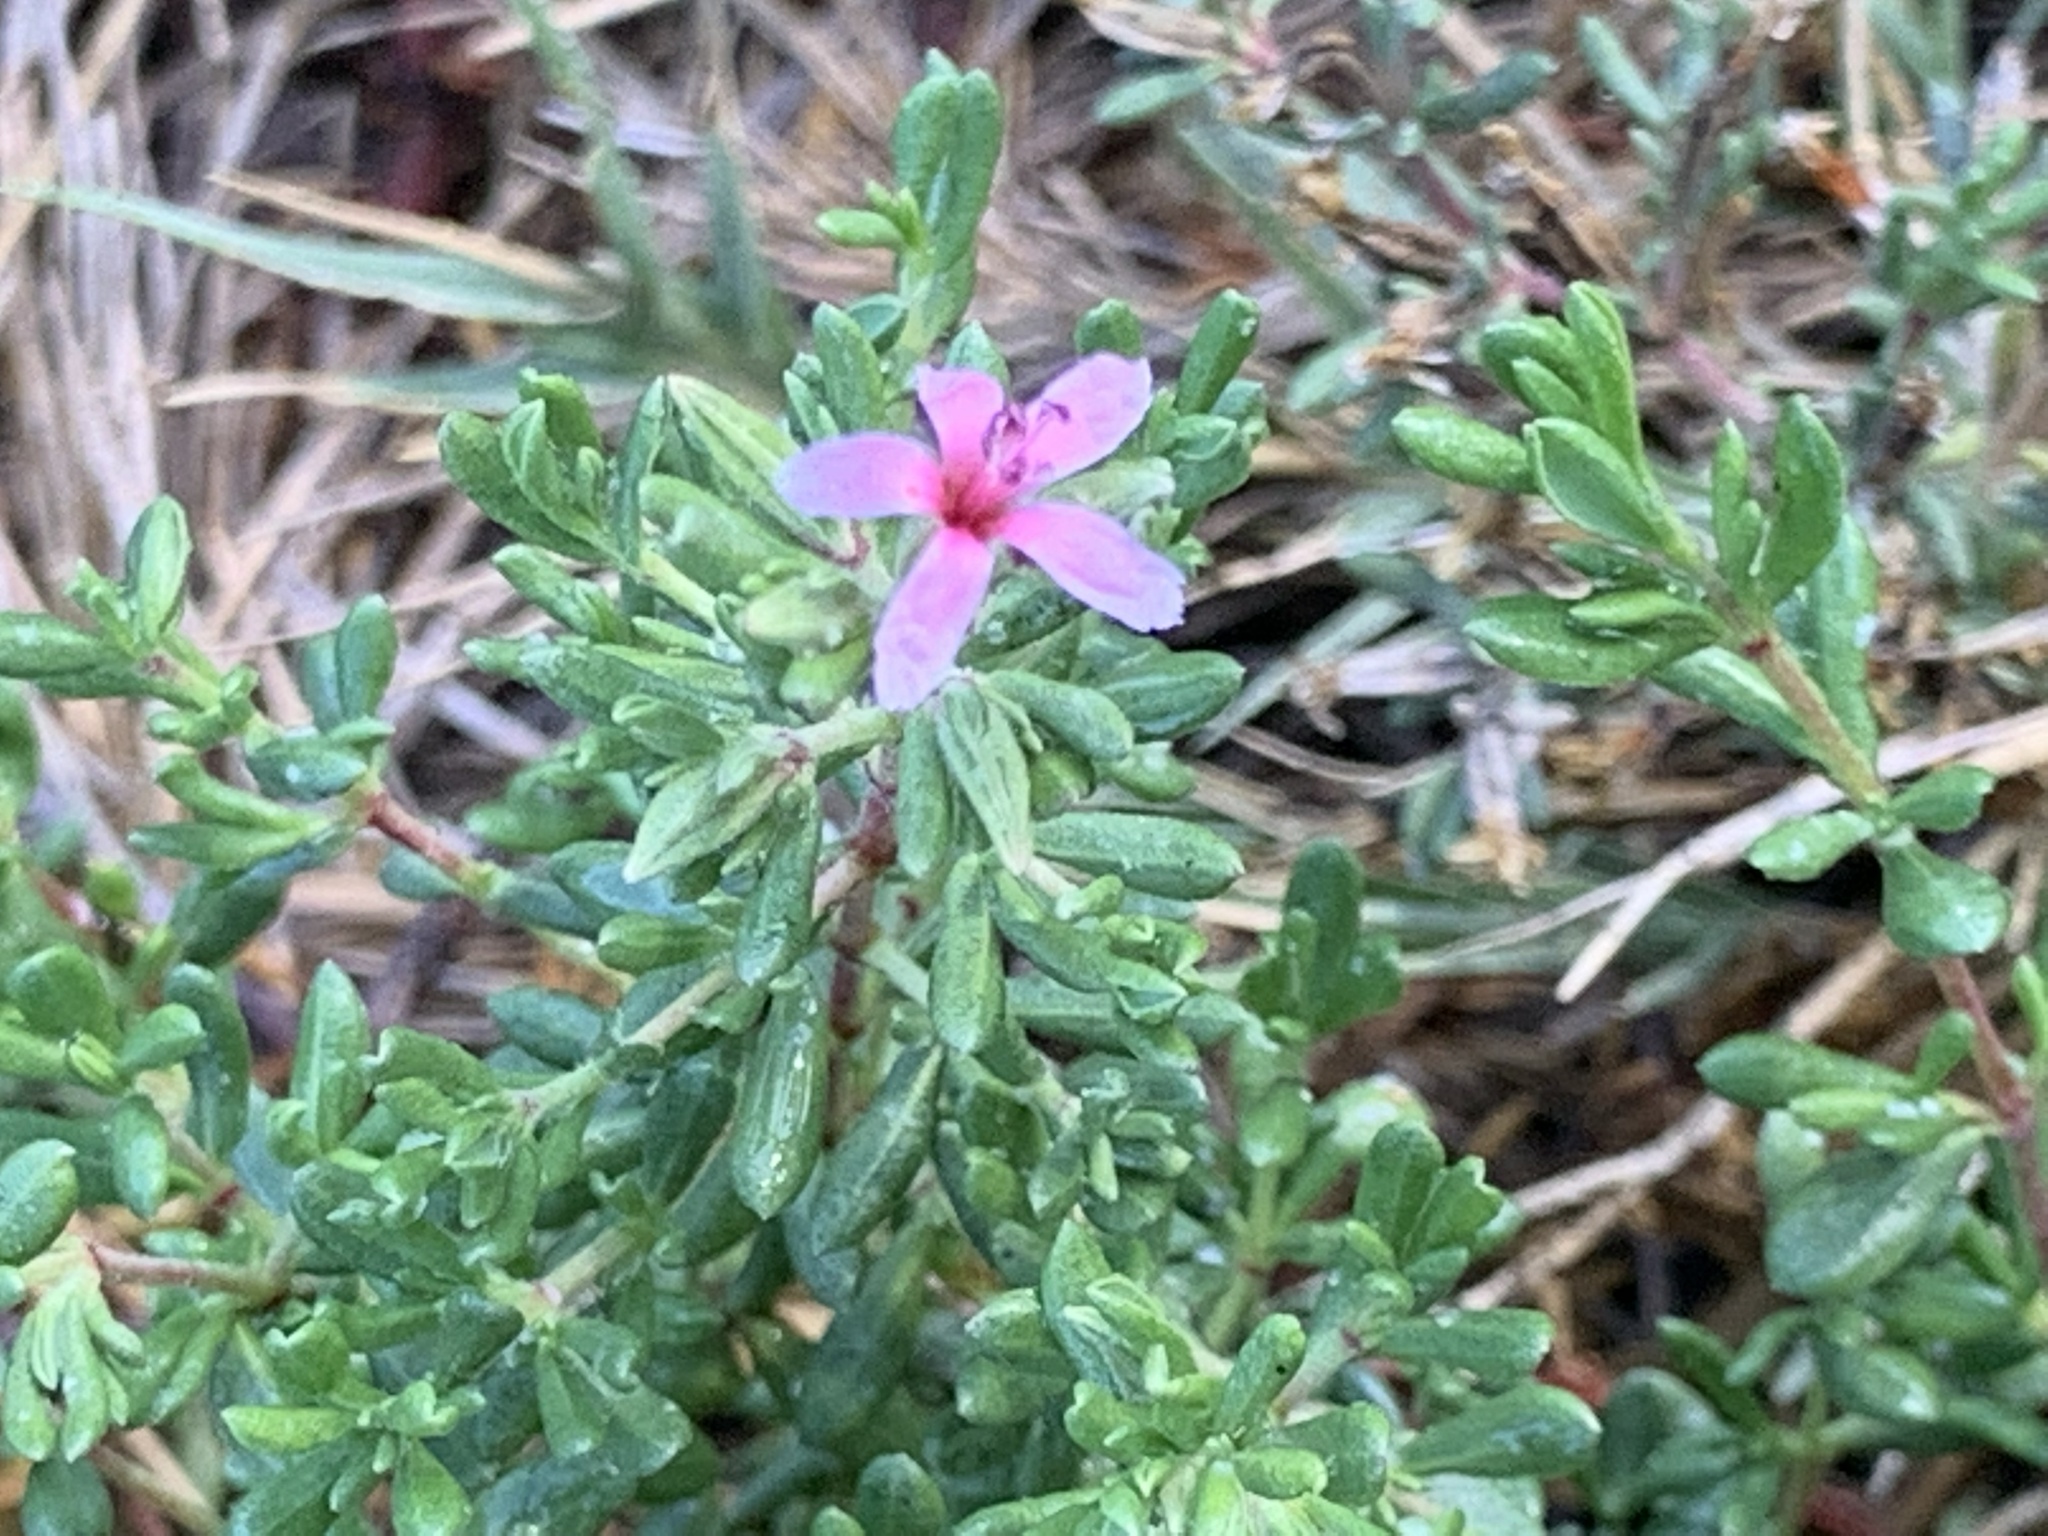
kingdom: Plantae
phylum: Tracheophyta
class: Magnoliopsida
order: Caryophyllales
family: Frankeniaceae
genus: Frankenia
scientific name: Frankenia salina
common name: Alkali seaheath
